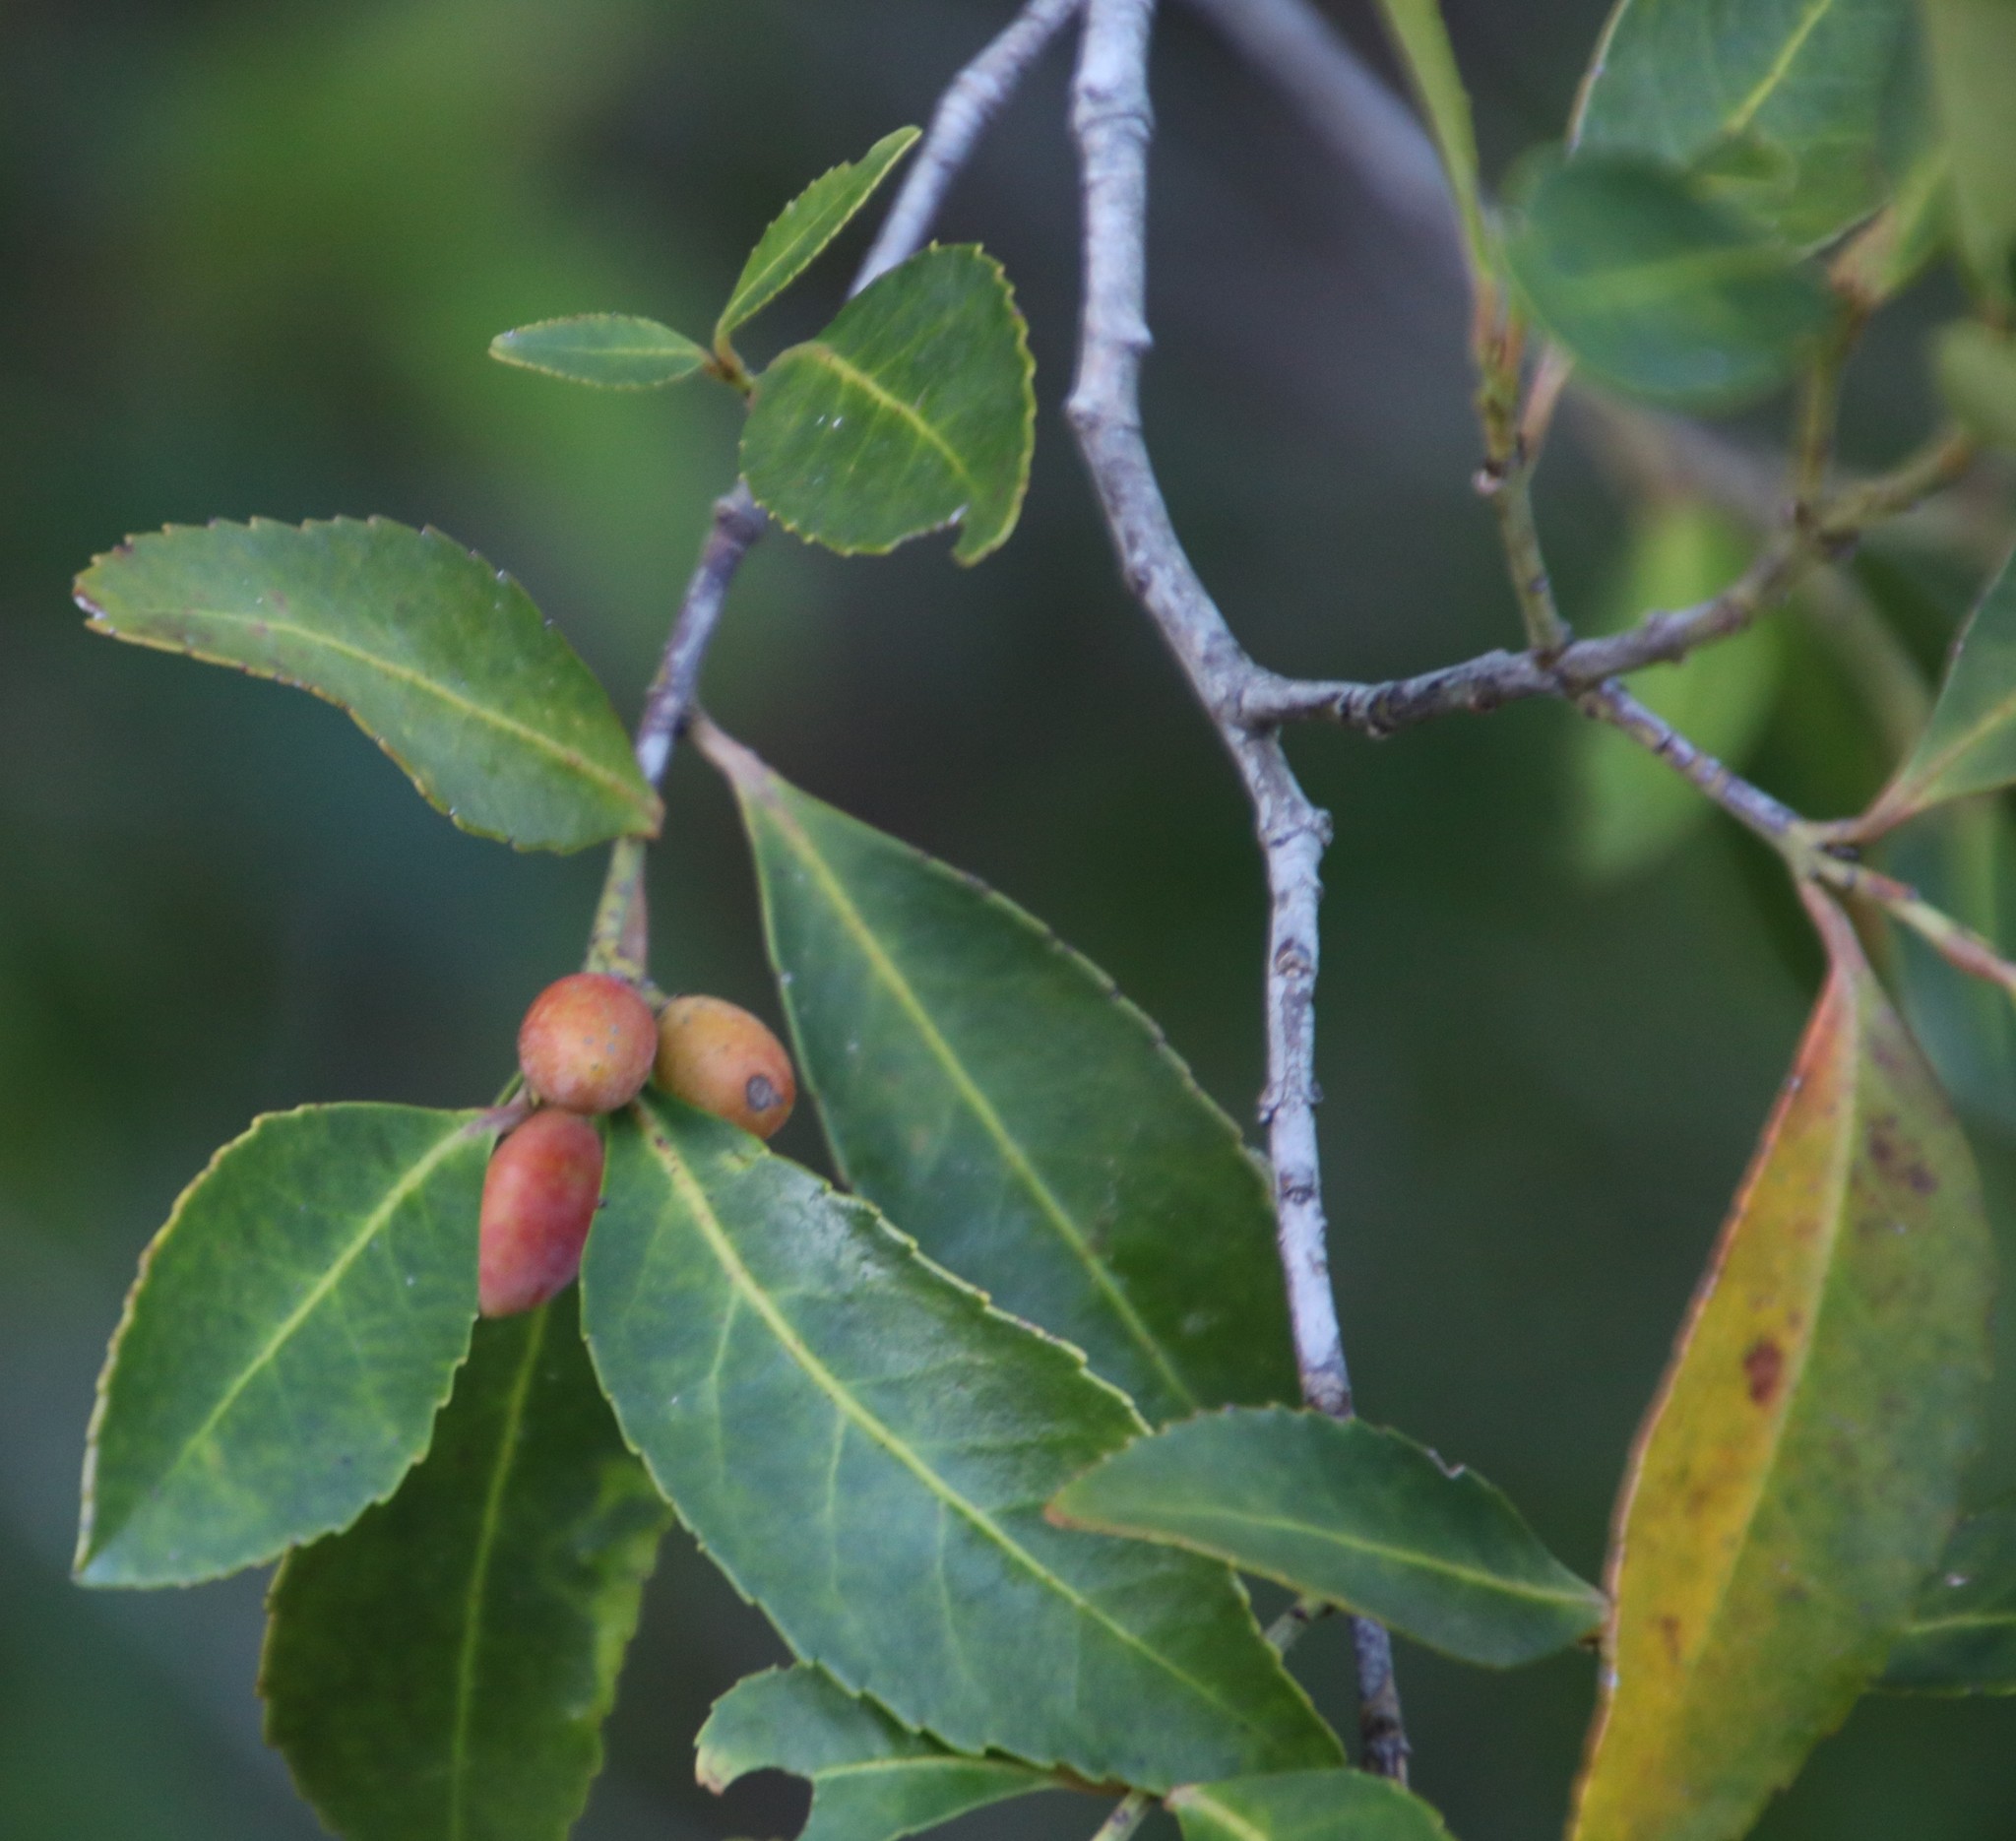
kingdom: Plantae
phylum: Tracheophyta
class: Magnoliopsida
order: Celastrales
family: Celastraceae
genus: Elaeodendron
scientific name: Elaeodendron schinoides
